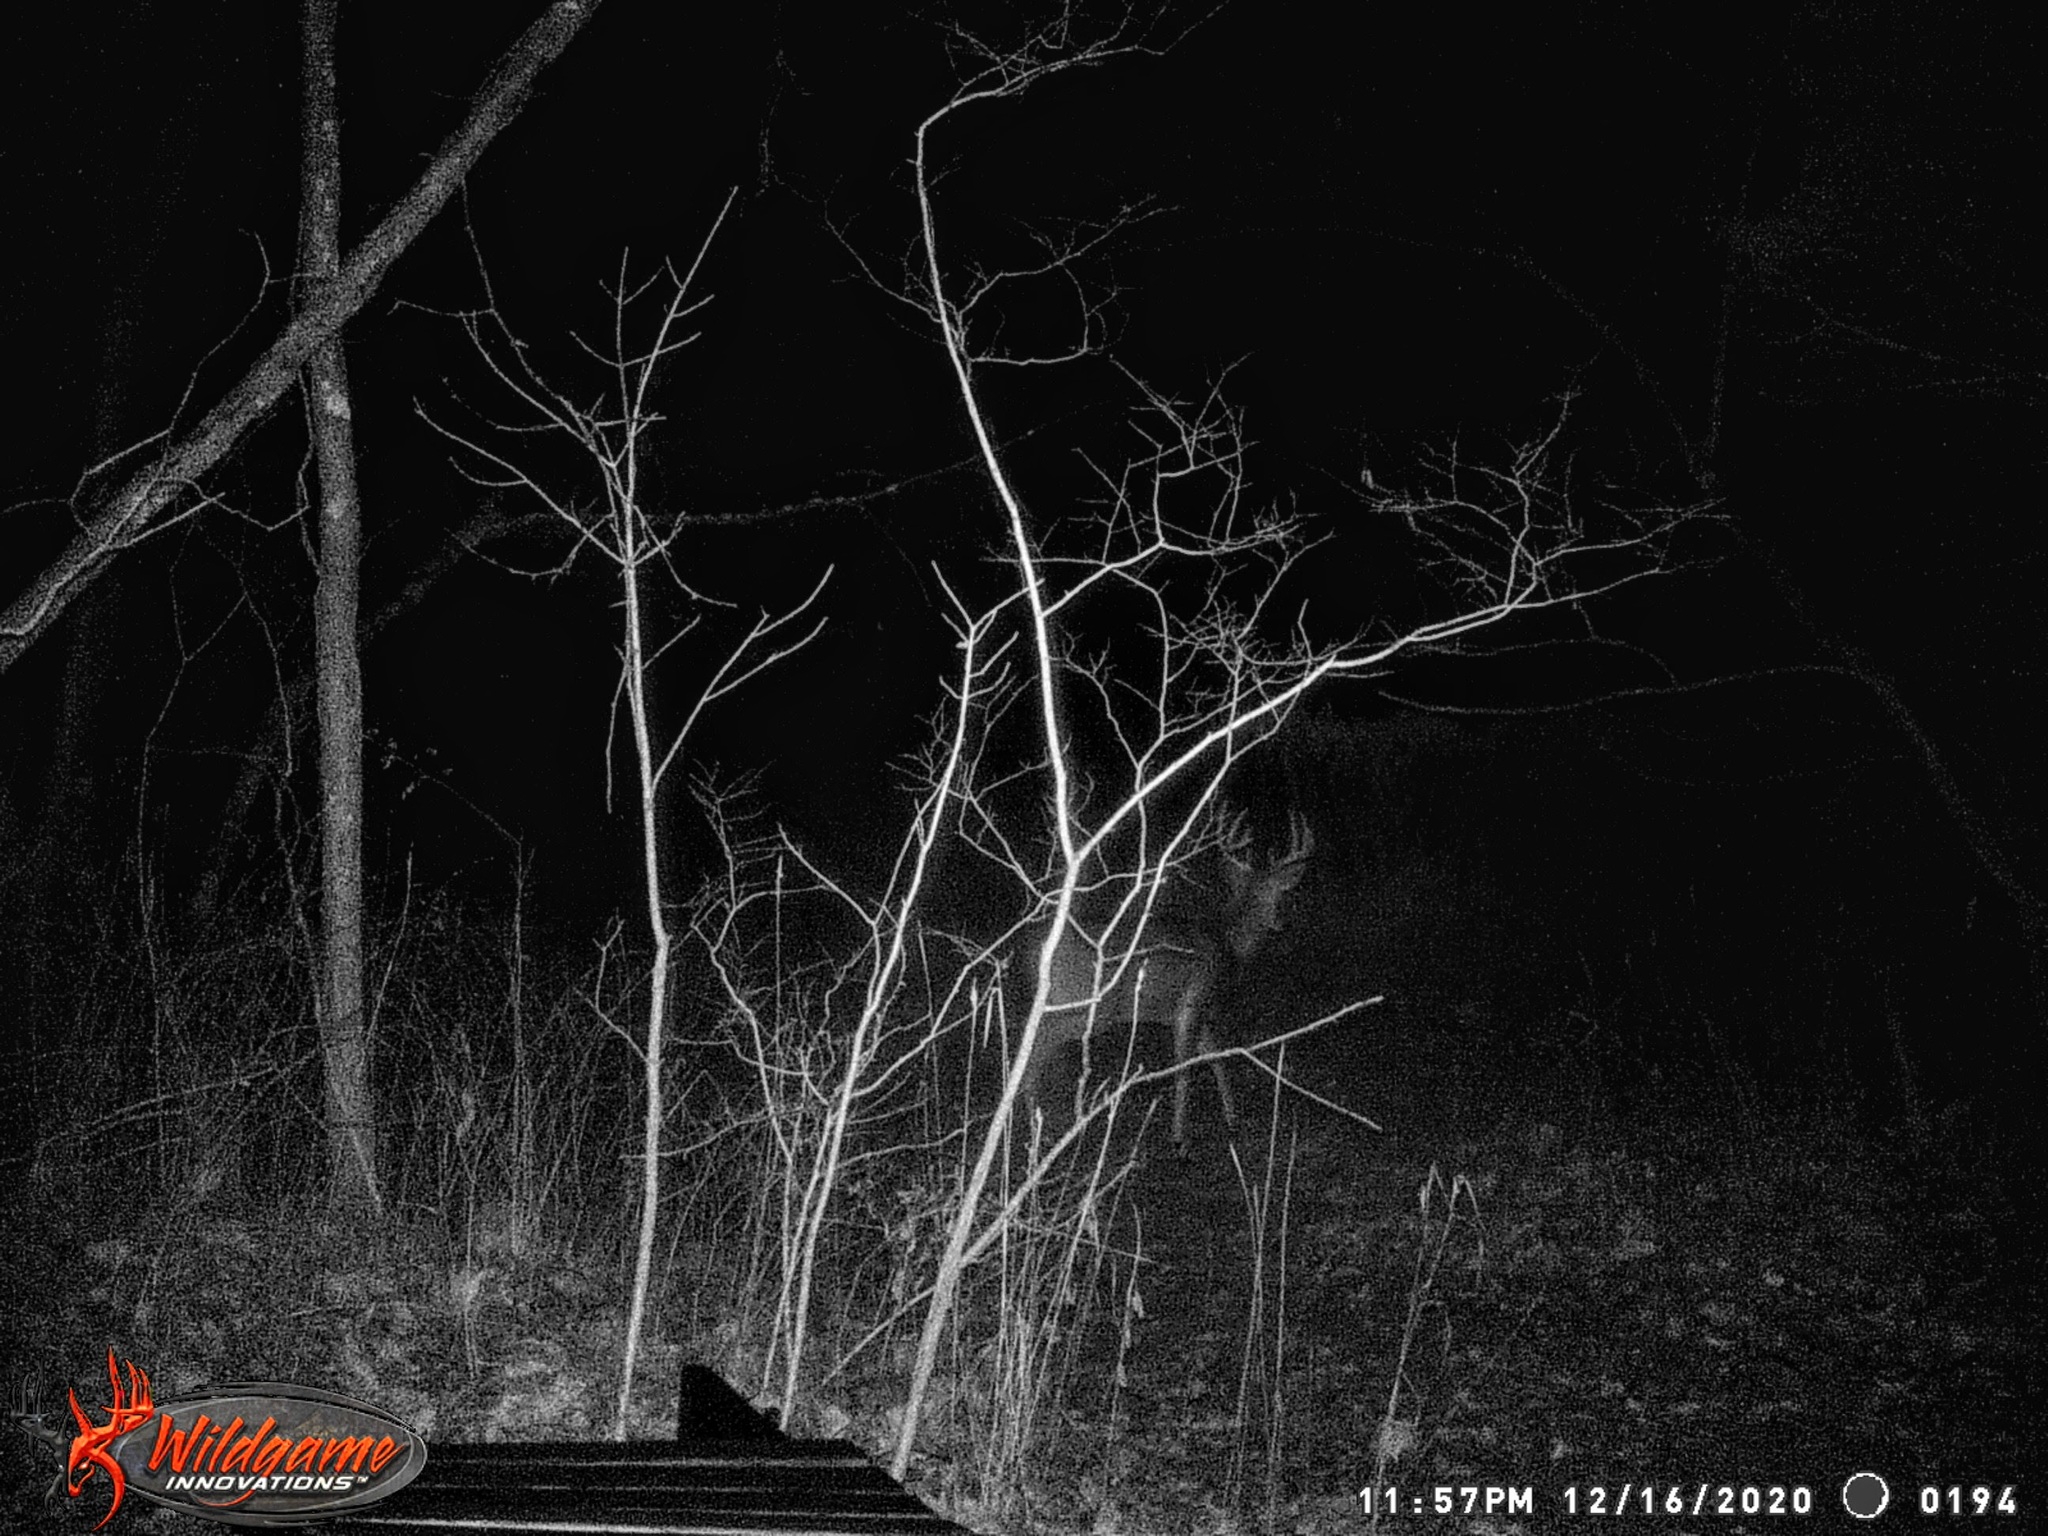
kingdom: Animalia
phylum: Chordata
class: Mammalia
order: Artiodactyla
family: Cervidae
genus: Odocoileus
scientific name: Odocoileus virginianus
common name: White-tailed deer
